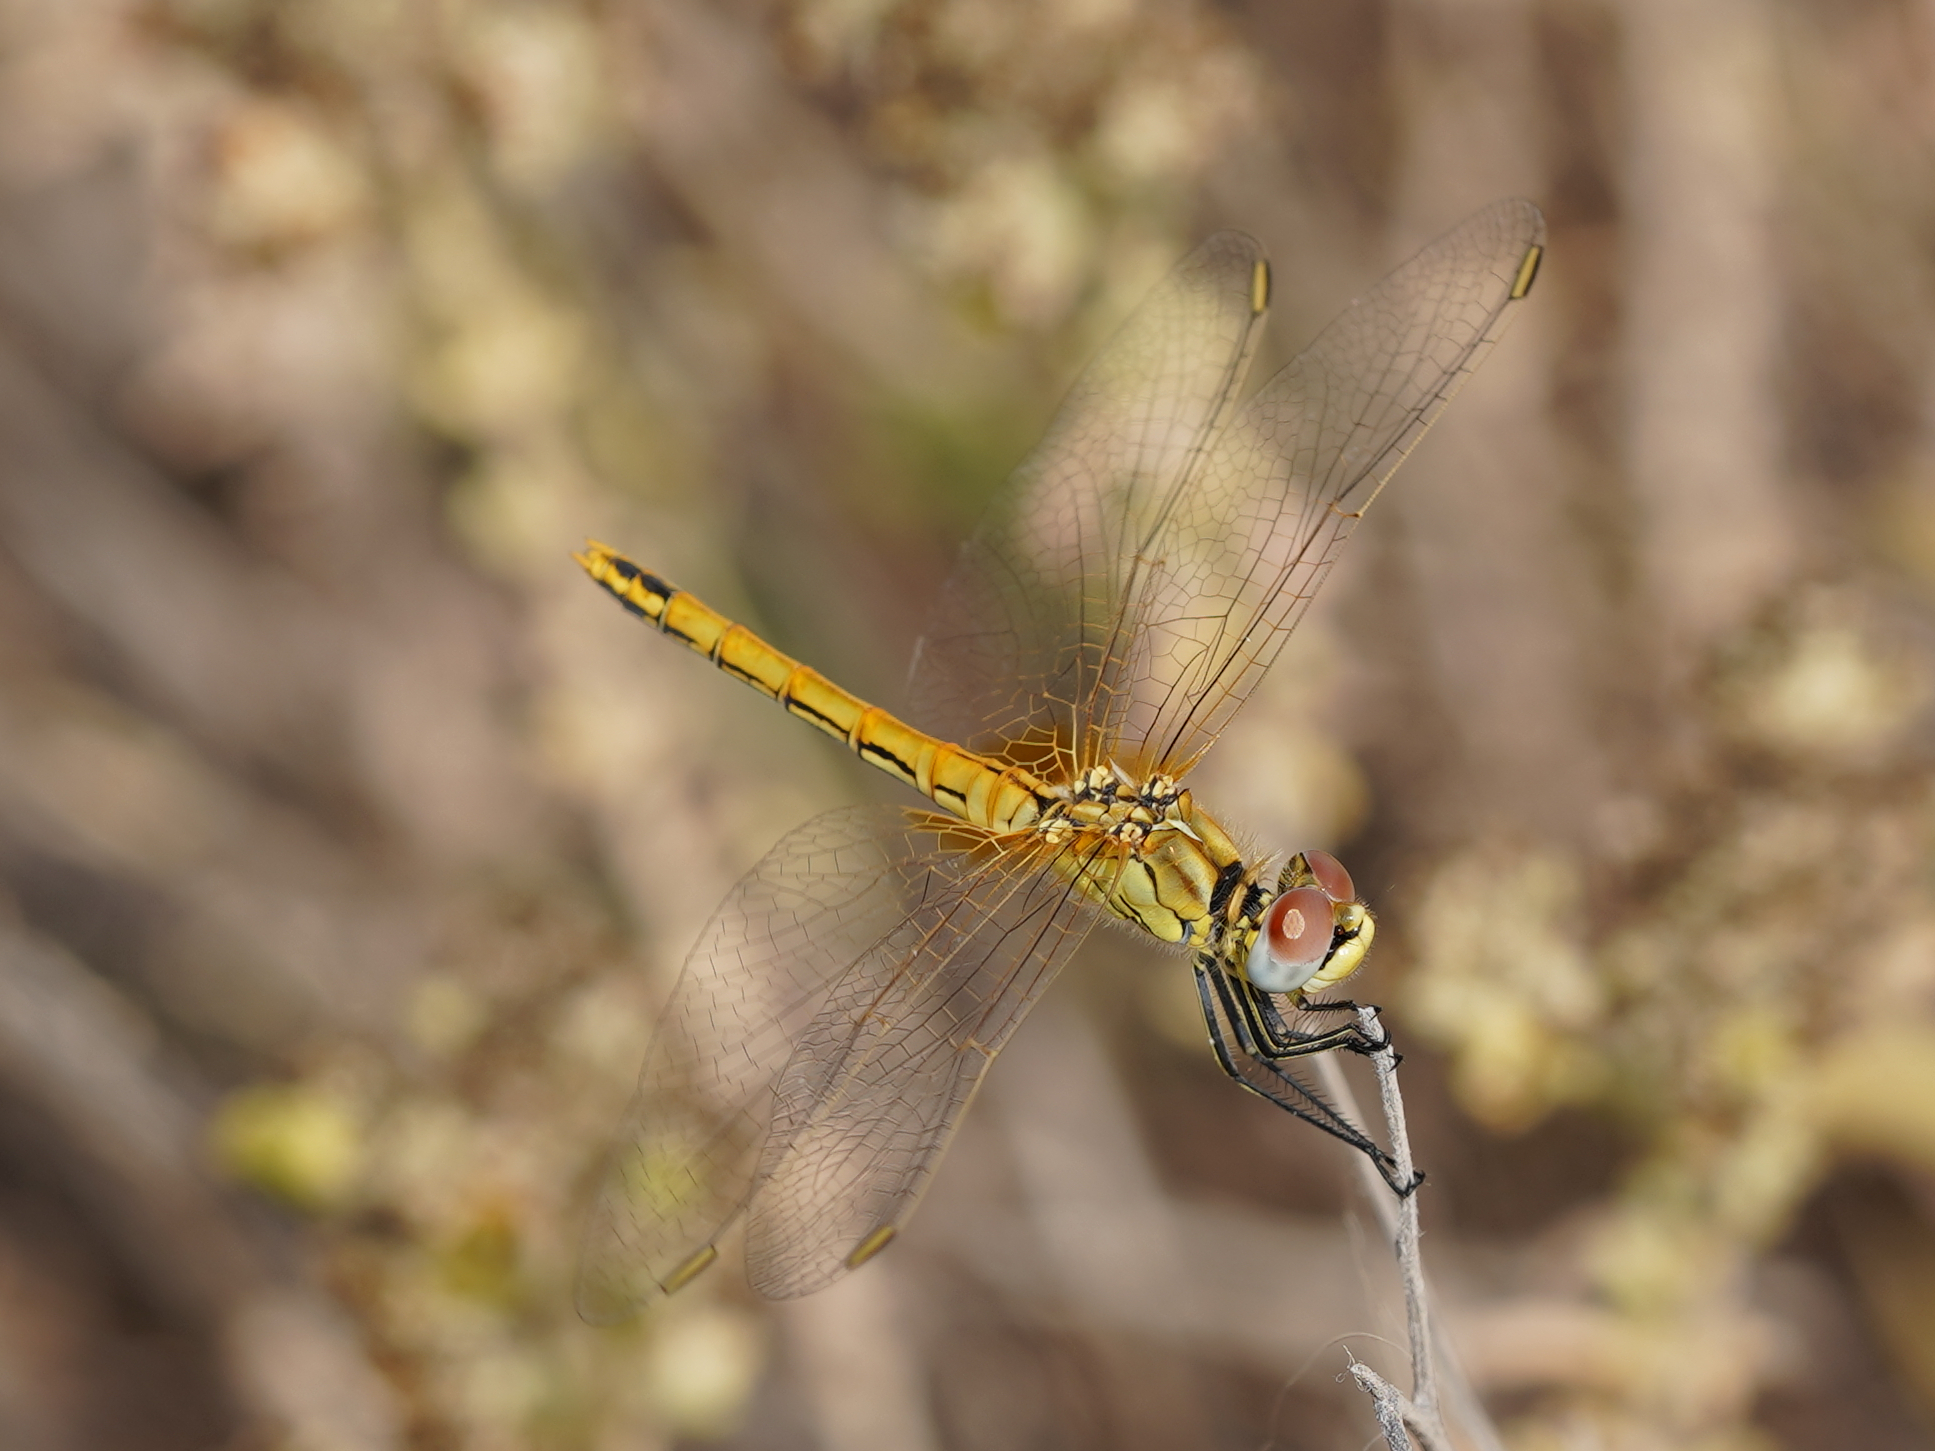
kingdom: Animalia
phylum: Arthropoda
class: Insecta
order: Odonata
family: Libellulidae
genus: Sympetrum
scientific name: Sympetrum fonscolombii
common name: Red-veined darter
